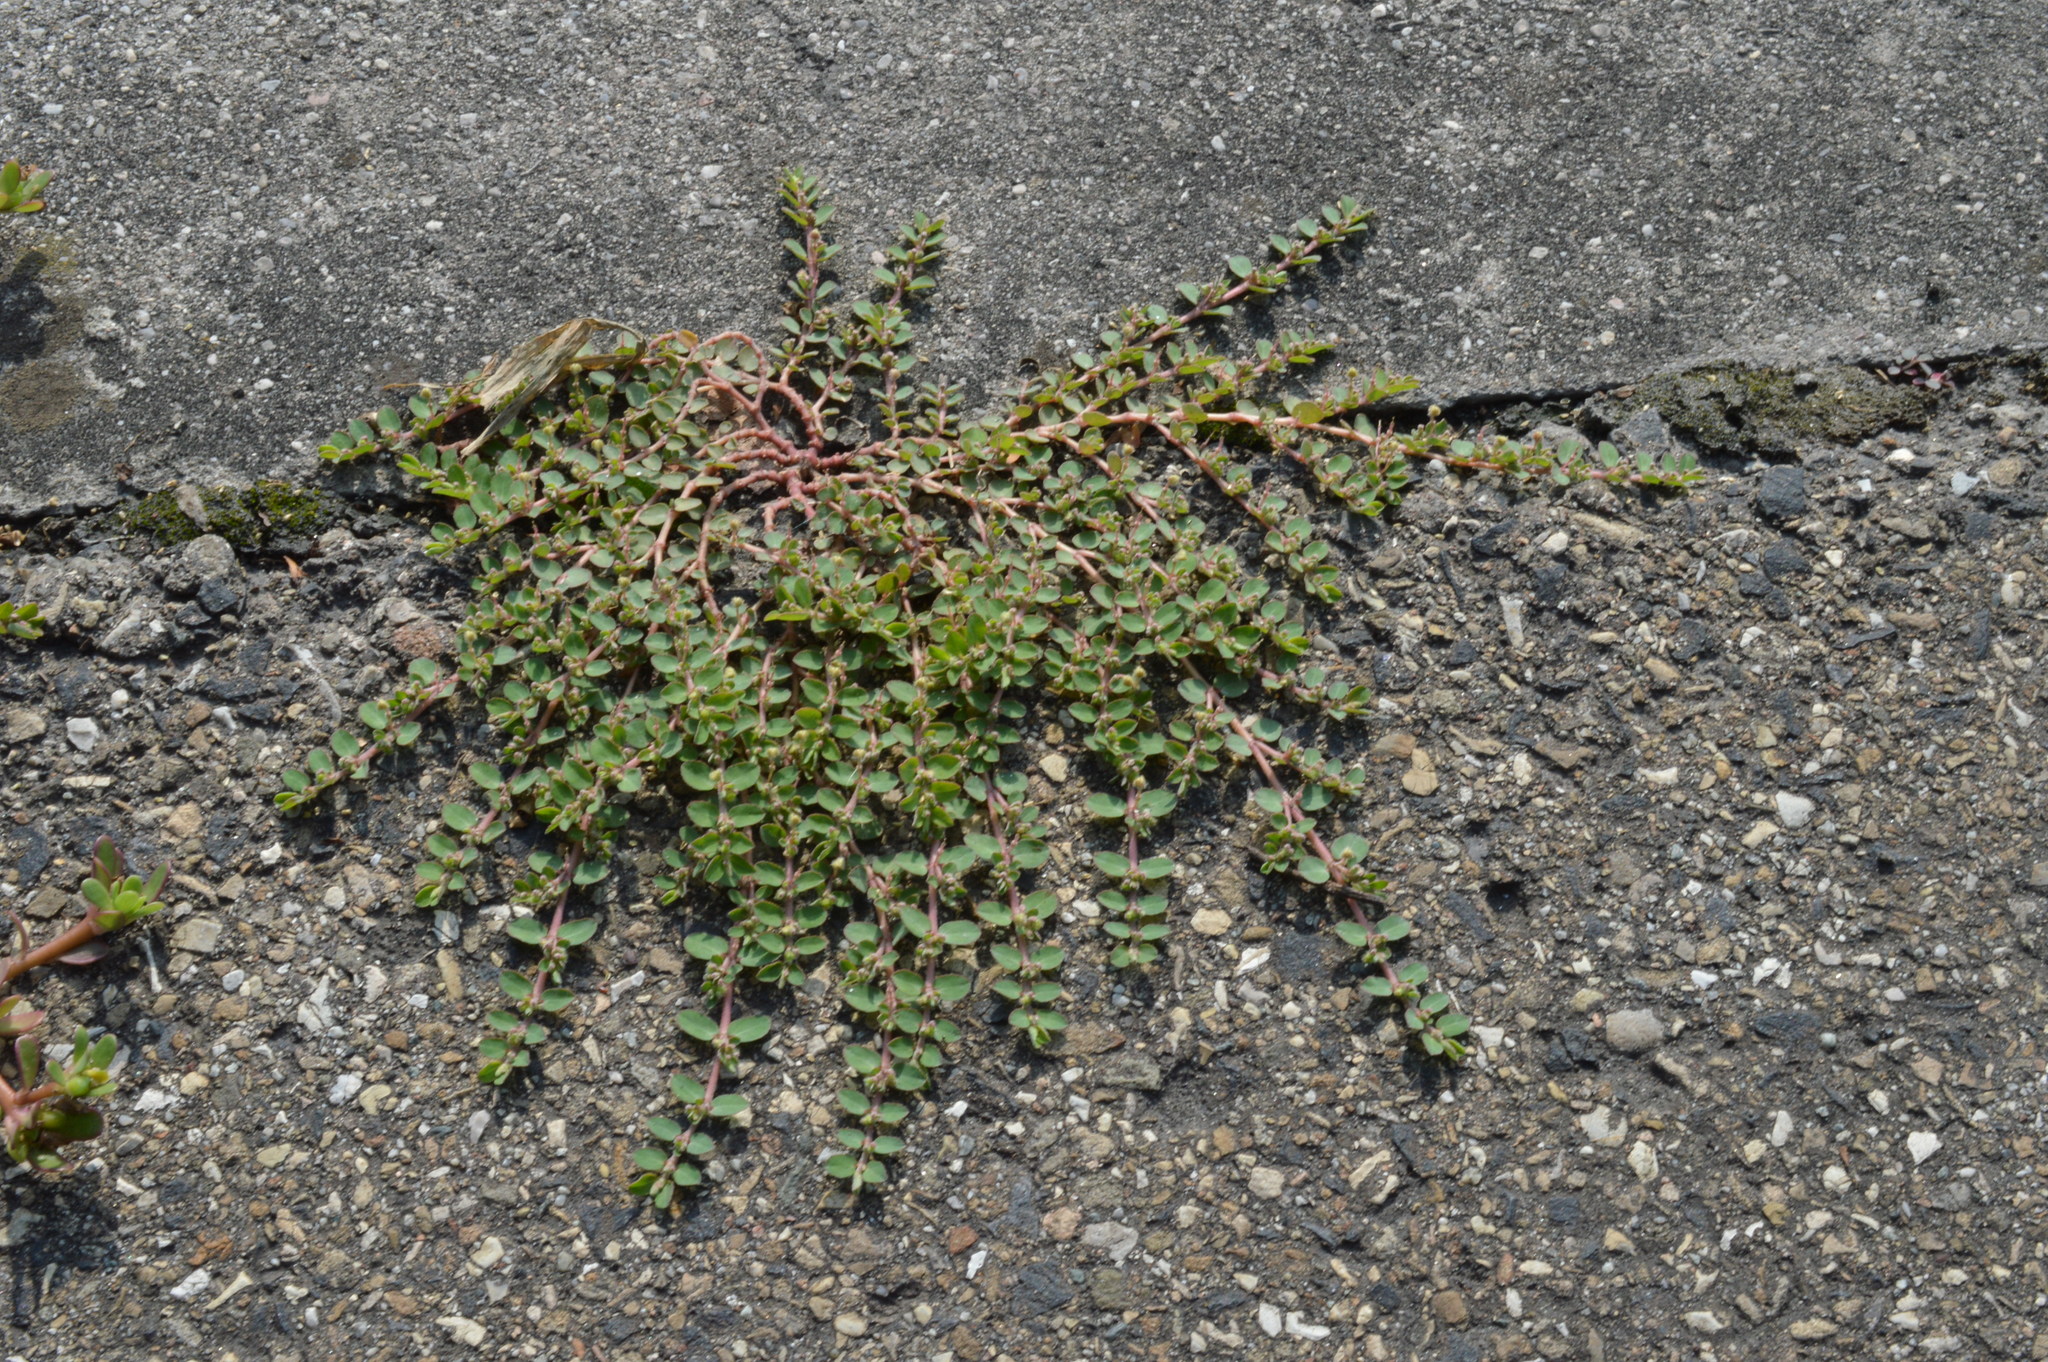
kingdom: Plantae
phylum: Tracheophyta
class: Magnoliopsida
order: Malpighiales
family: Euphorbiaceae
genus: Euphorbia
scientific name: Euphorbia prostrata
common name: Prostrate sandmat
